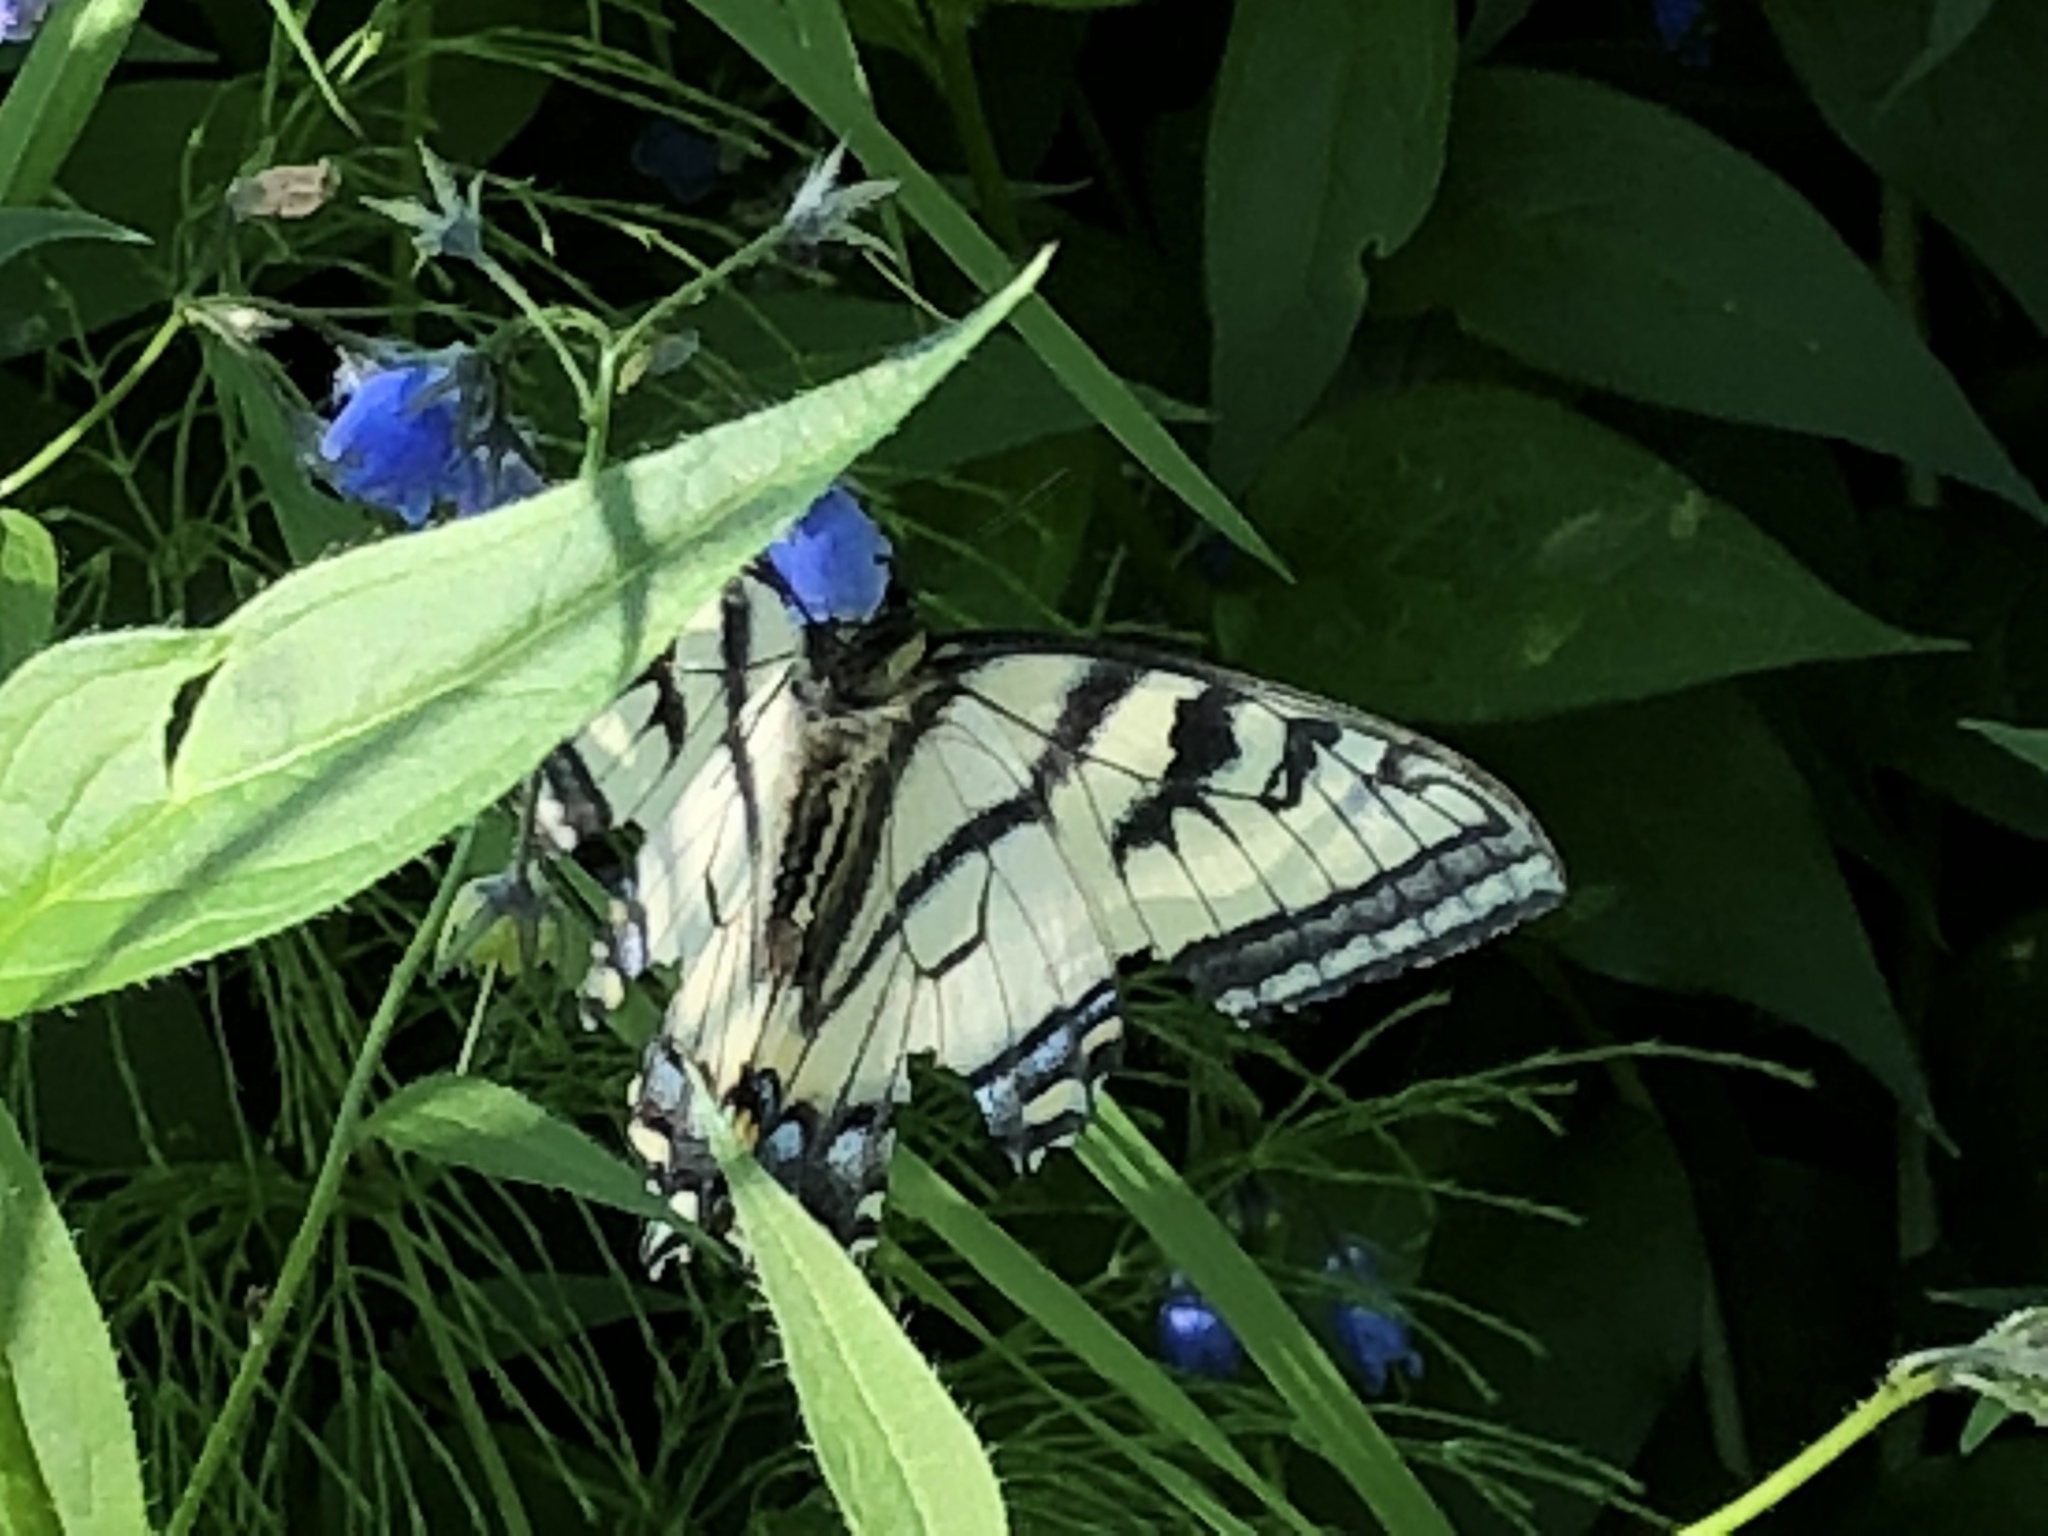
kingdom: Animalia
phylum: Arthropoda
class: Insecta
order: Lepidoptera
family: Papilionidae
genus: Papilio
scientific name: Papilio canadensis
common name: Canadian tiger swallowtail
